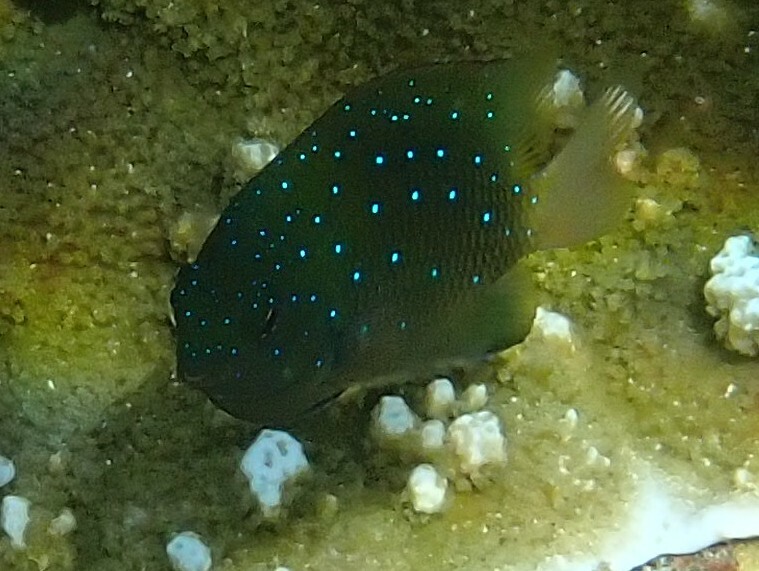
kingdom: Animalia
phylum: Chordata
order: Perciformes
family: Pomacentridae
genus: Plectroglyphidodon
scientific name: Plectroglyphidodon lacrymatus
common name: Jewel damsel
